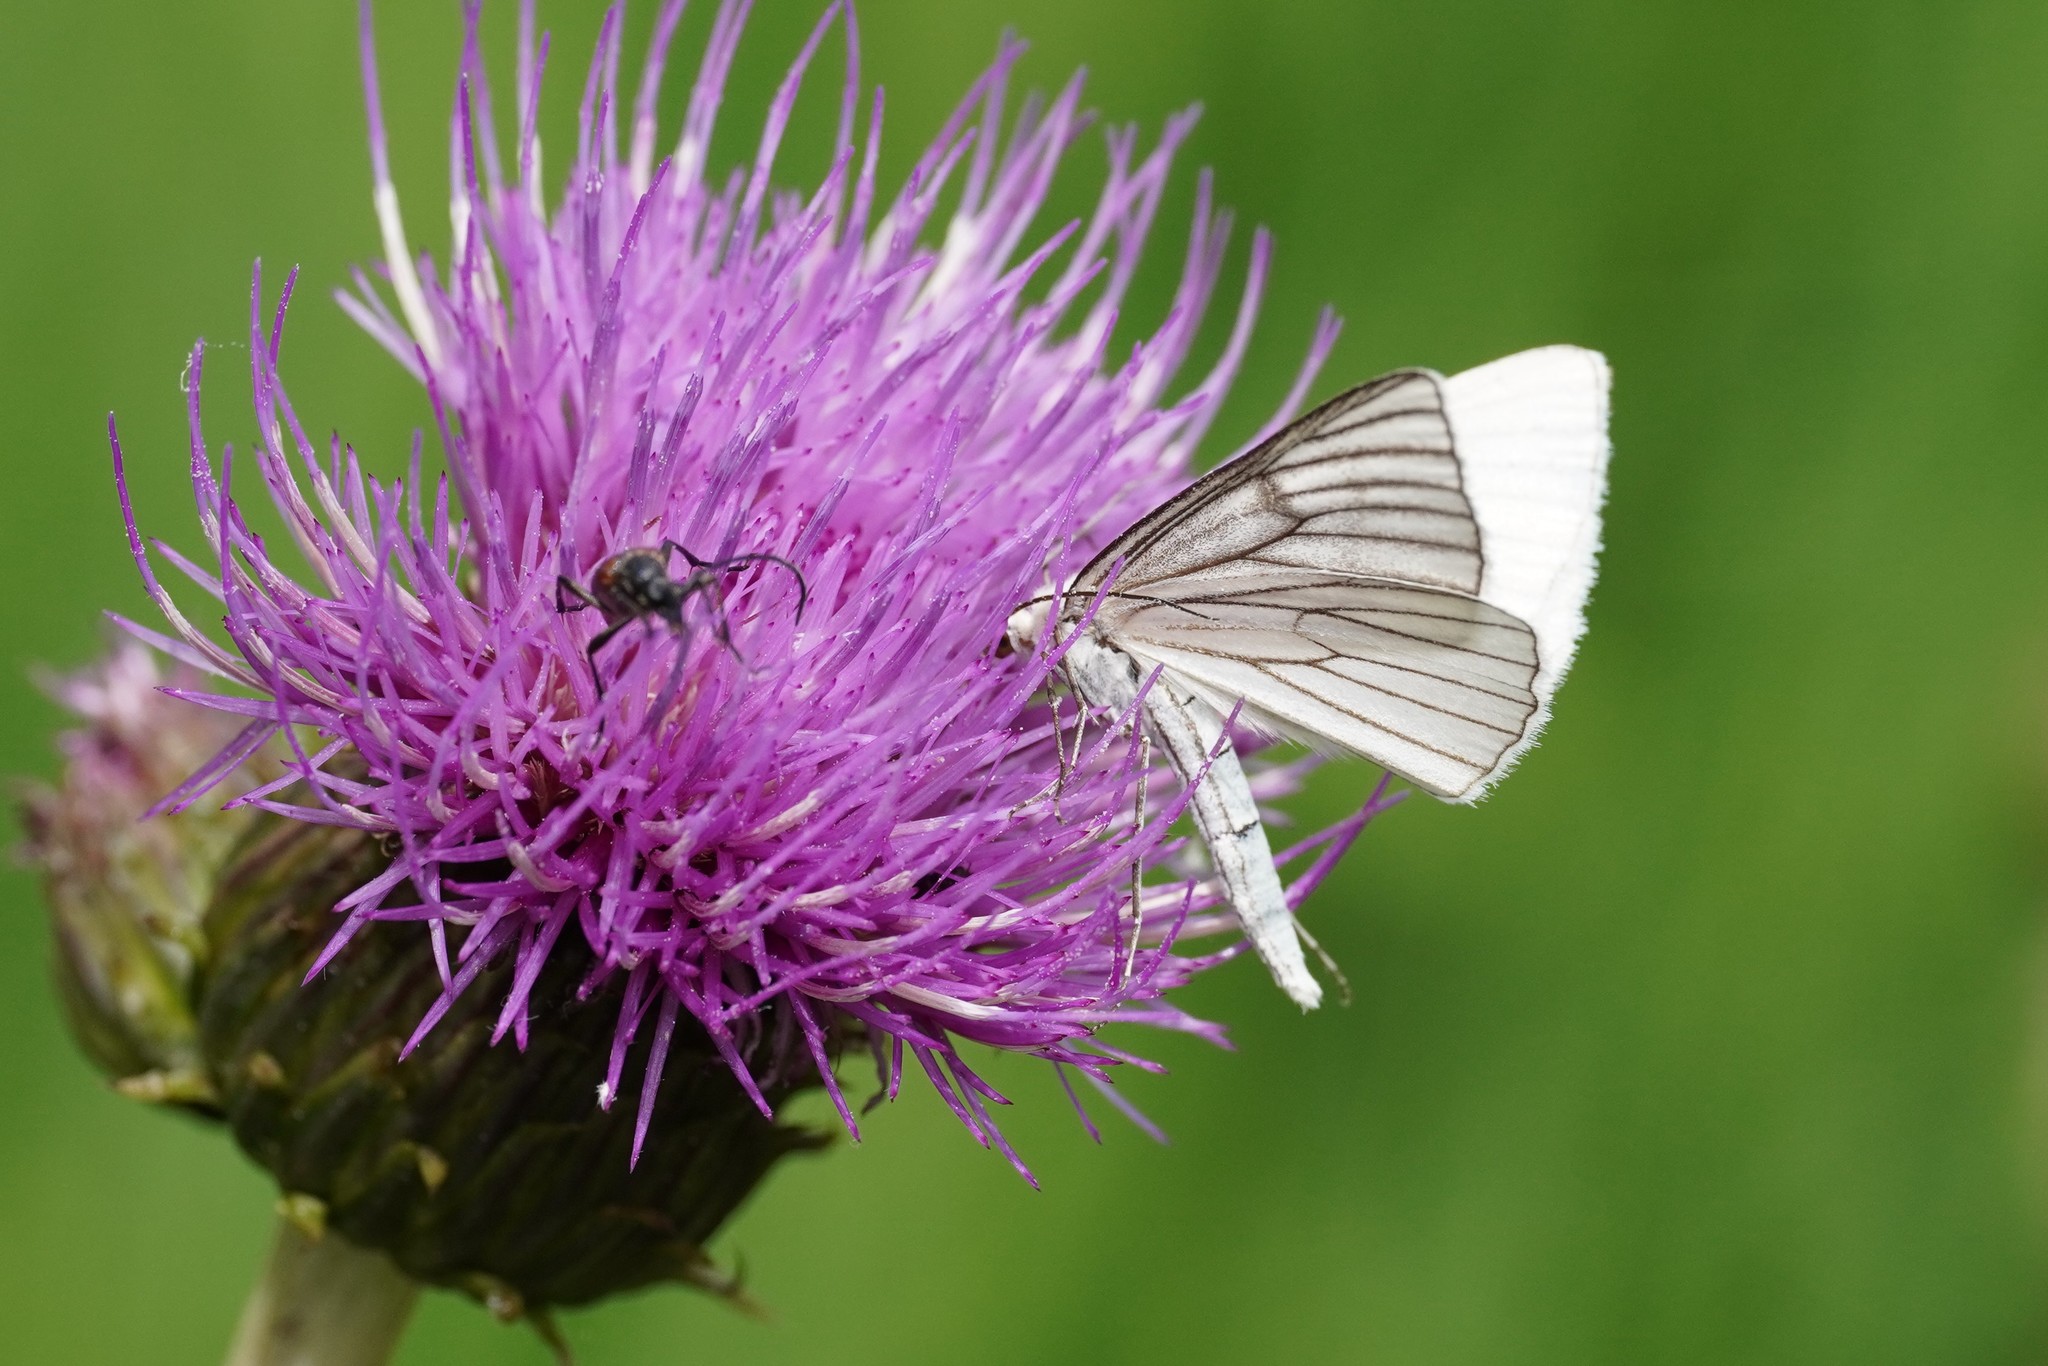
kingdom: Animalia
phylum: Arthropoda
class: Insecta
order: Lepidoptera
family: Geometridae
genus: Siona
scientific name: Siona lineata
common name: Black-veined moth
